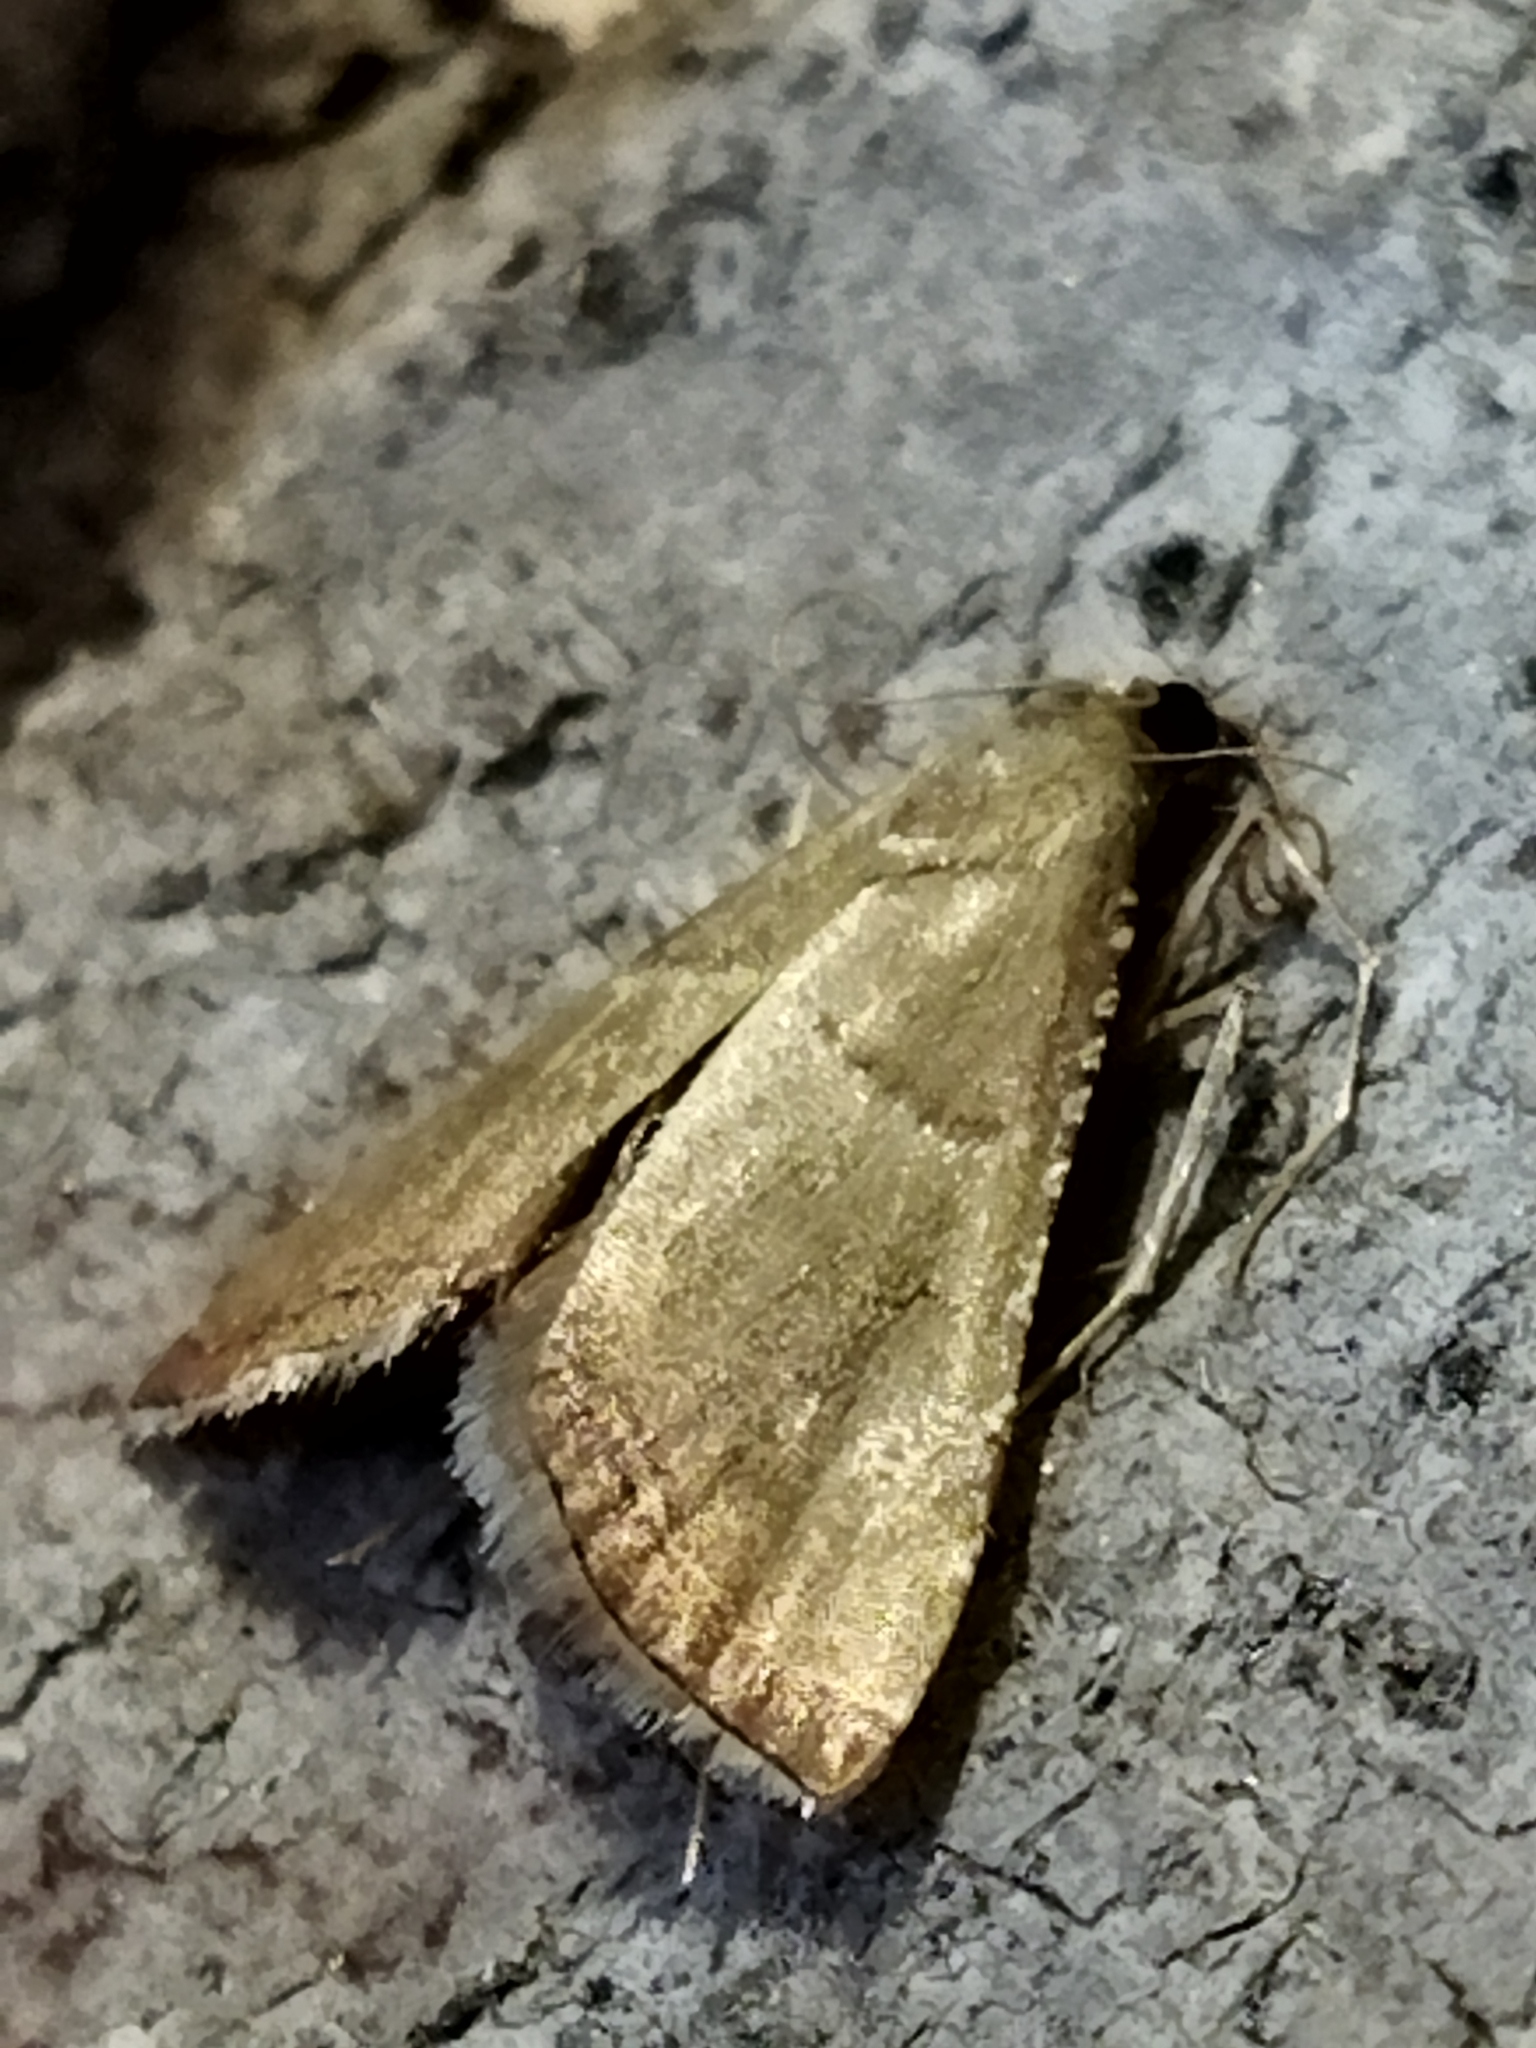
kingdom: Animalia
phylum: Arthropoda
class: Insecta
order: Lepidoptera
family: Pyralidae
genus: Endotricha
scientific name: Endotricha flammealis
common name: Rosy tabby
